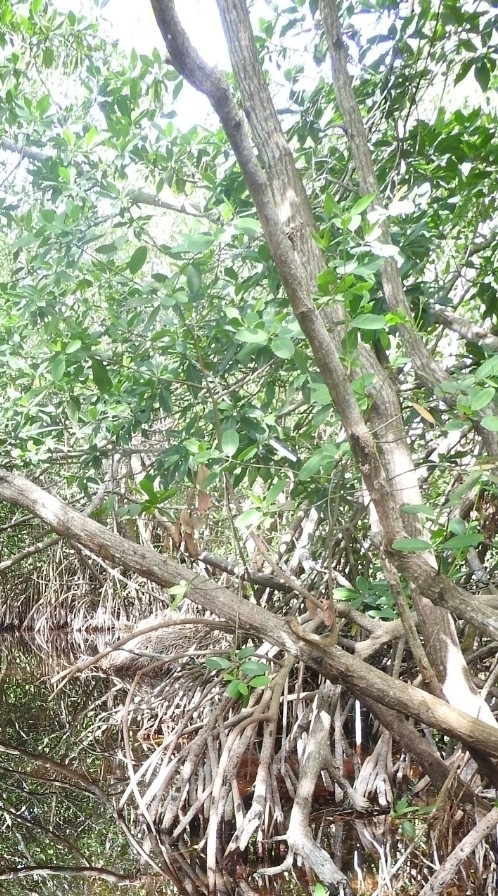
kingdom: Plantae
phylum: Tracheophyta
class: Magnoliopsida
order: Malpighiales
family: Rhizophoraceae
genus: Rhizophora
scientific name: Rhizophora mangle
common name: Red mangrove
